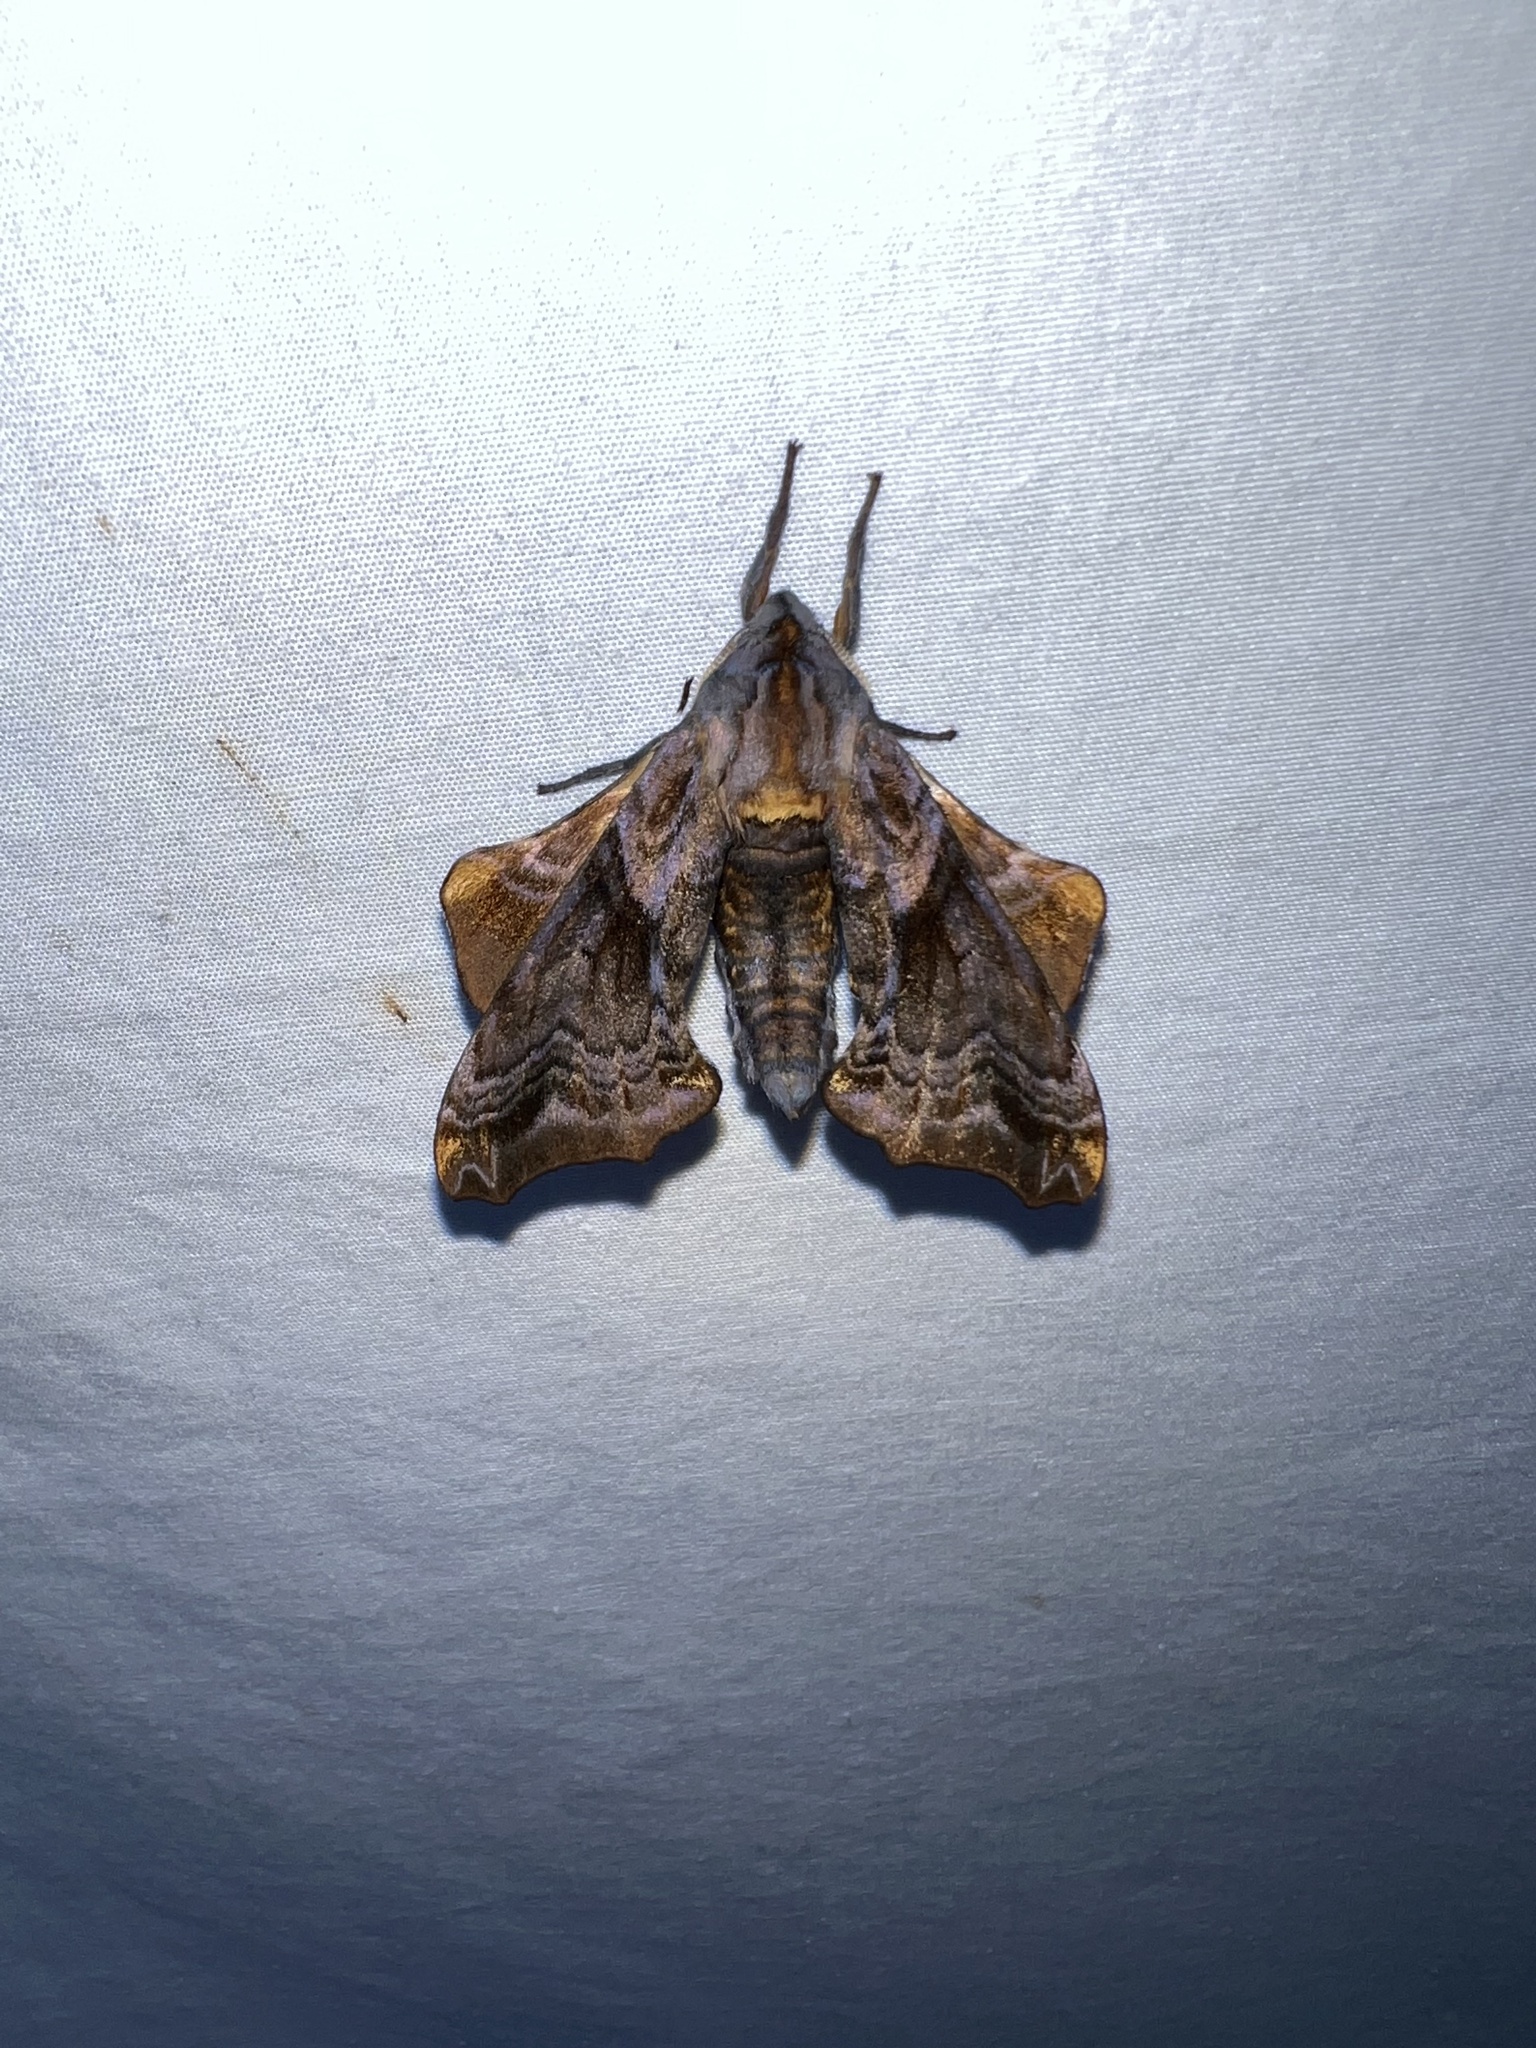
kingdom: Animalia
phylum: Arthropoda
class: Insecta
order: Lepidoptera
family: Sphingidae
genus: Paonias
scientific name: Paonias myops
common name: Small-eyed sphinx
